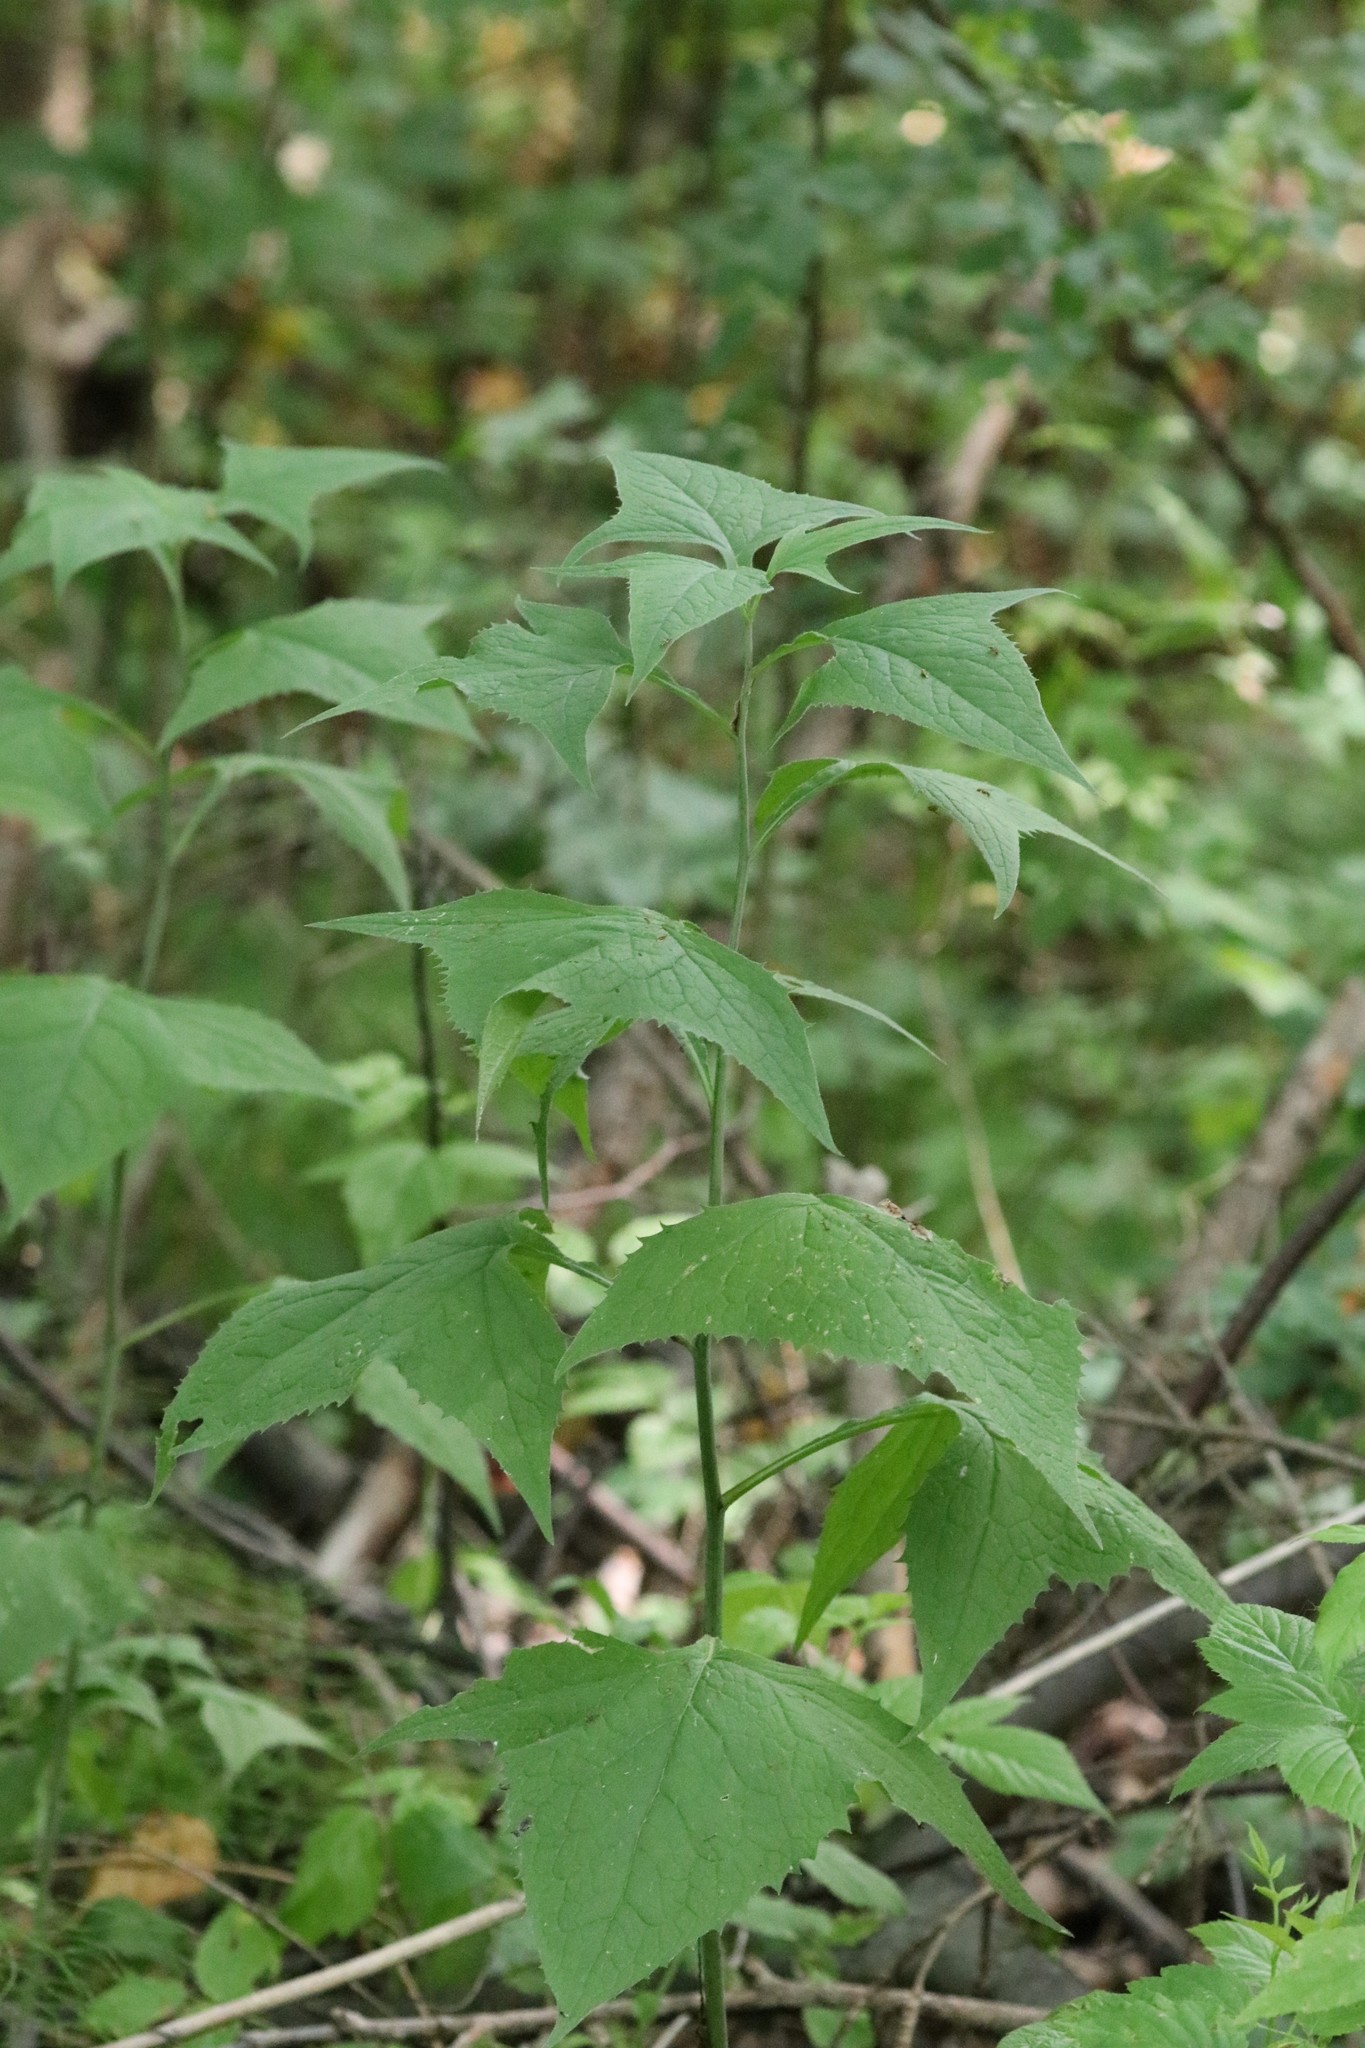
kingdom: Plantae
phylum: Tracheophyta
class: Magnoliopsida
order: Asterales
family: Asteraceae
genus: Parasenecio
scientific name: Parasenecio hastatus
